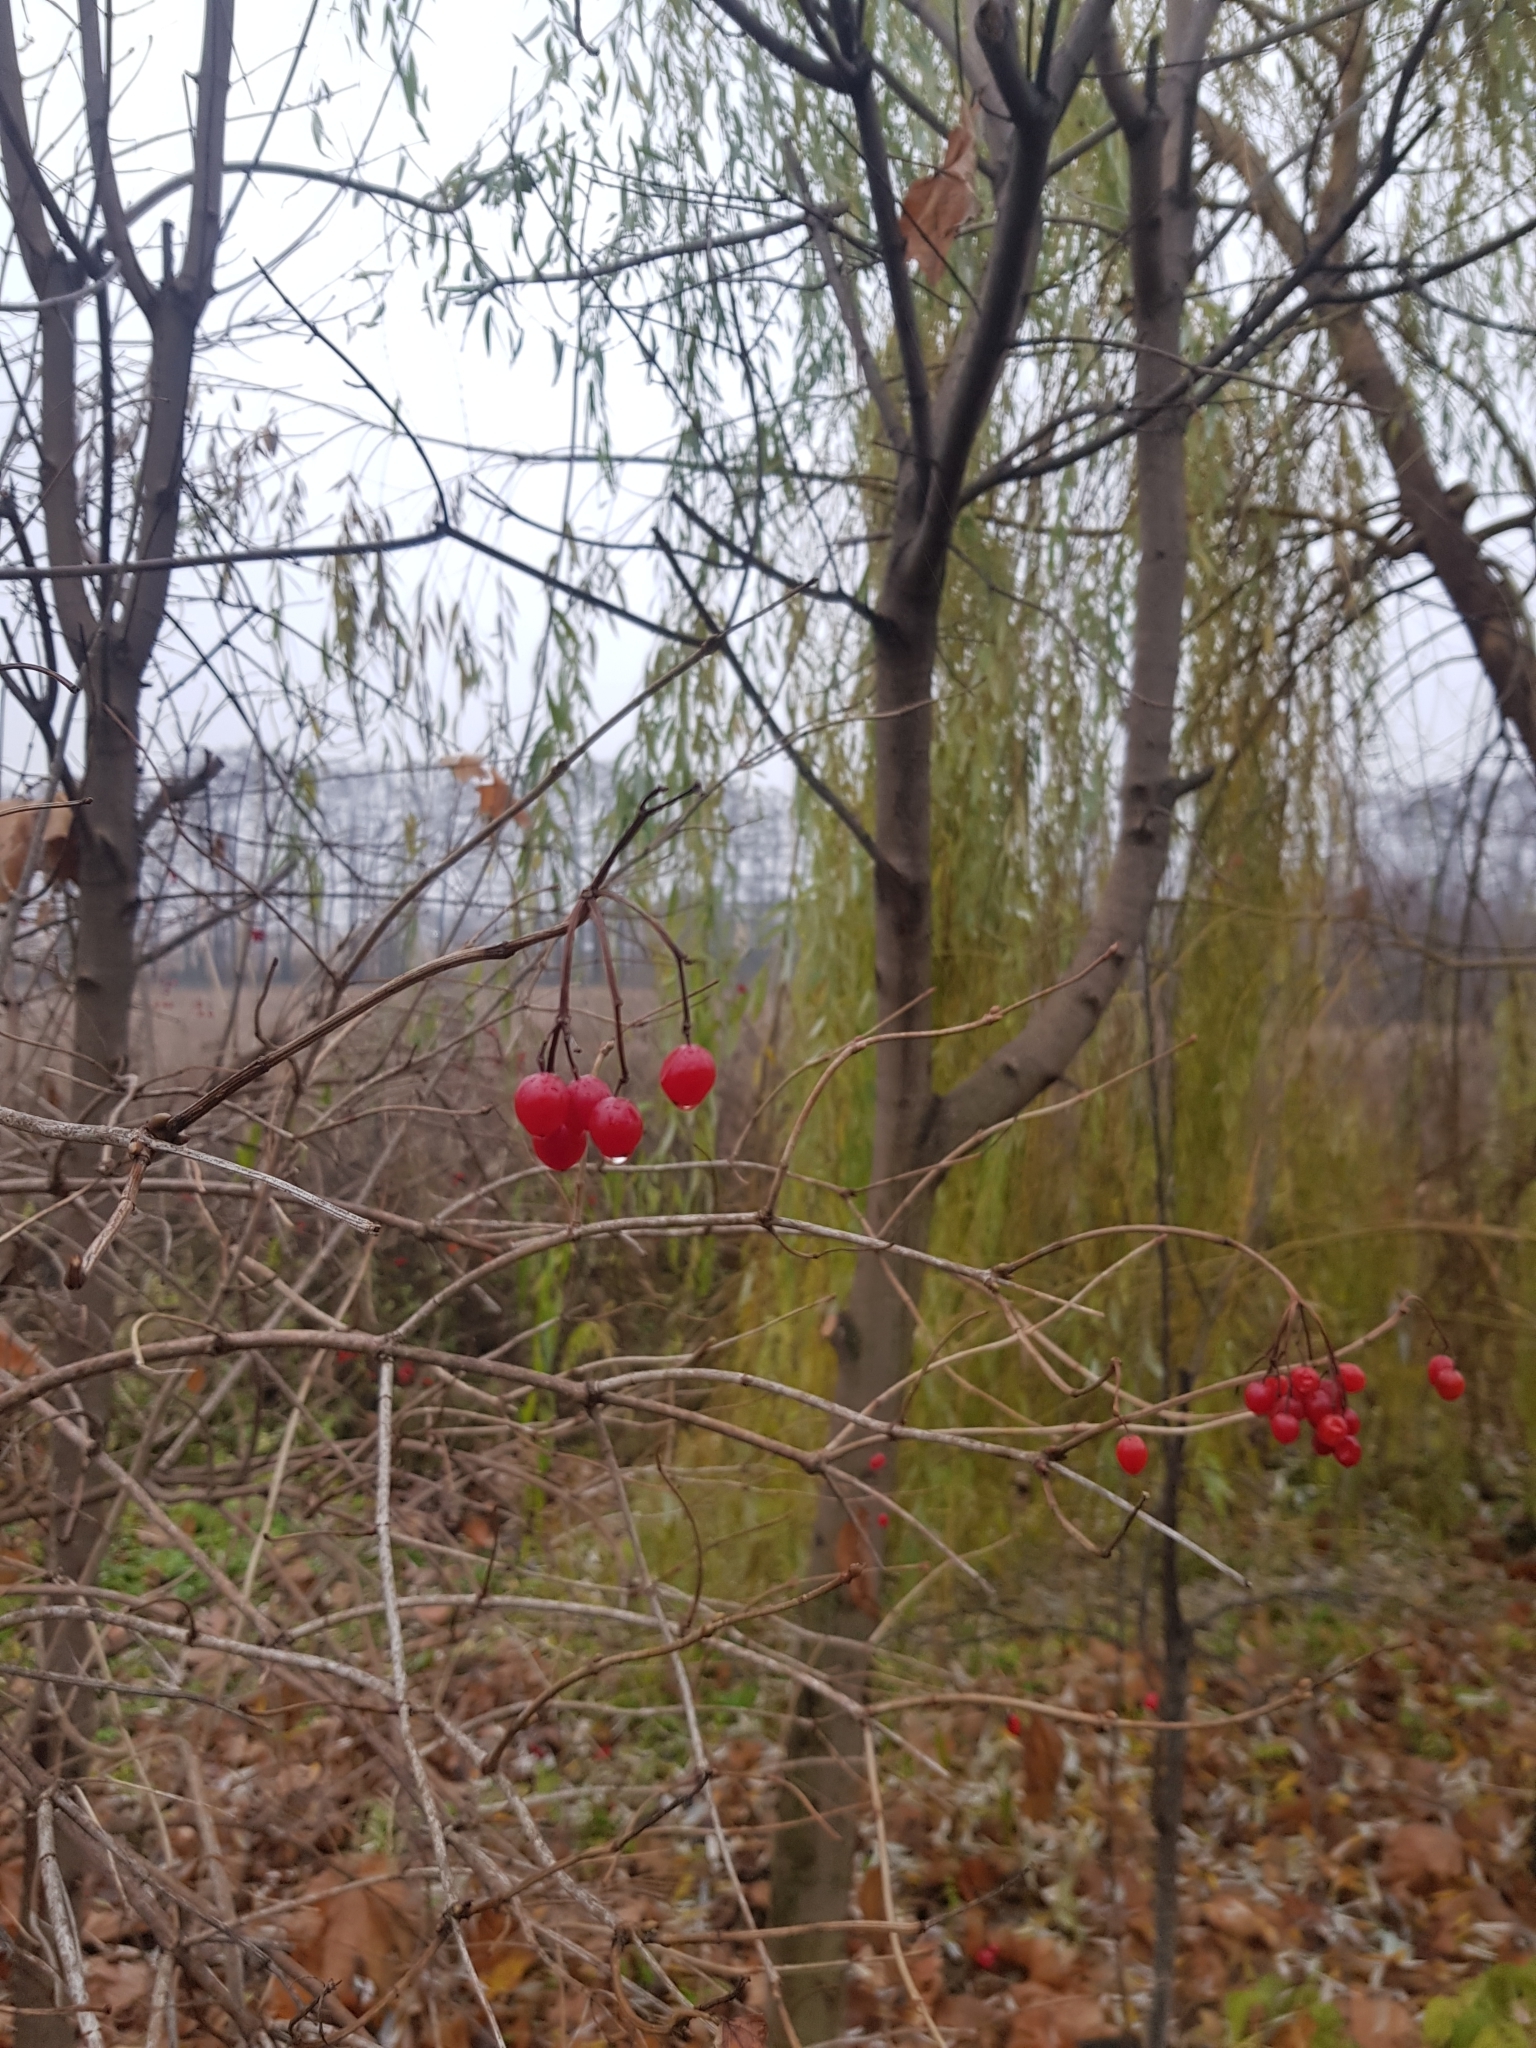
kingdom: Plantae
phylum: Tracheophyta
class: Magnoliopsida
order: Dipsacales
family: Viburnaceae
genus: Viburnum
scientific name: Viburnum opulus
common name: Guelder-rose
